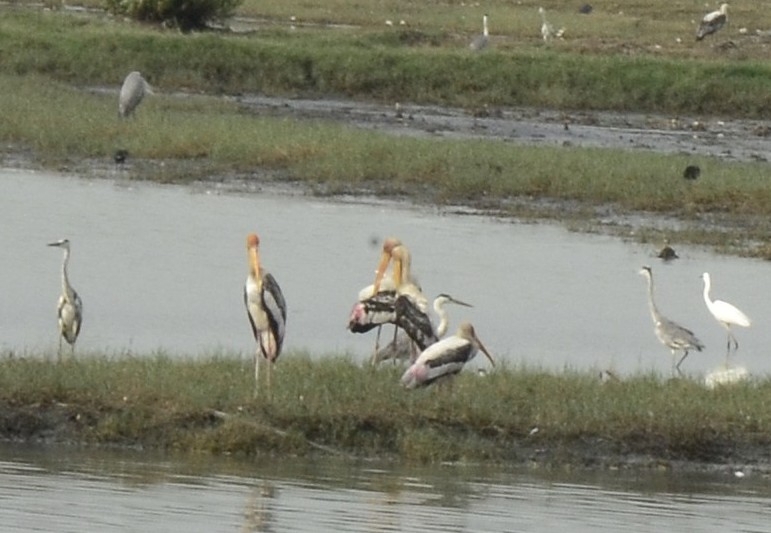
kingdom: Animalia
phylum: Chordata
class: Aves
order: Ciconiiformes
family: Ciconiidae
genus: Mycteria
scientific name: Mycteria leucocephala
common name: Painted stork
